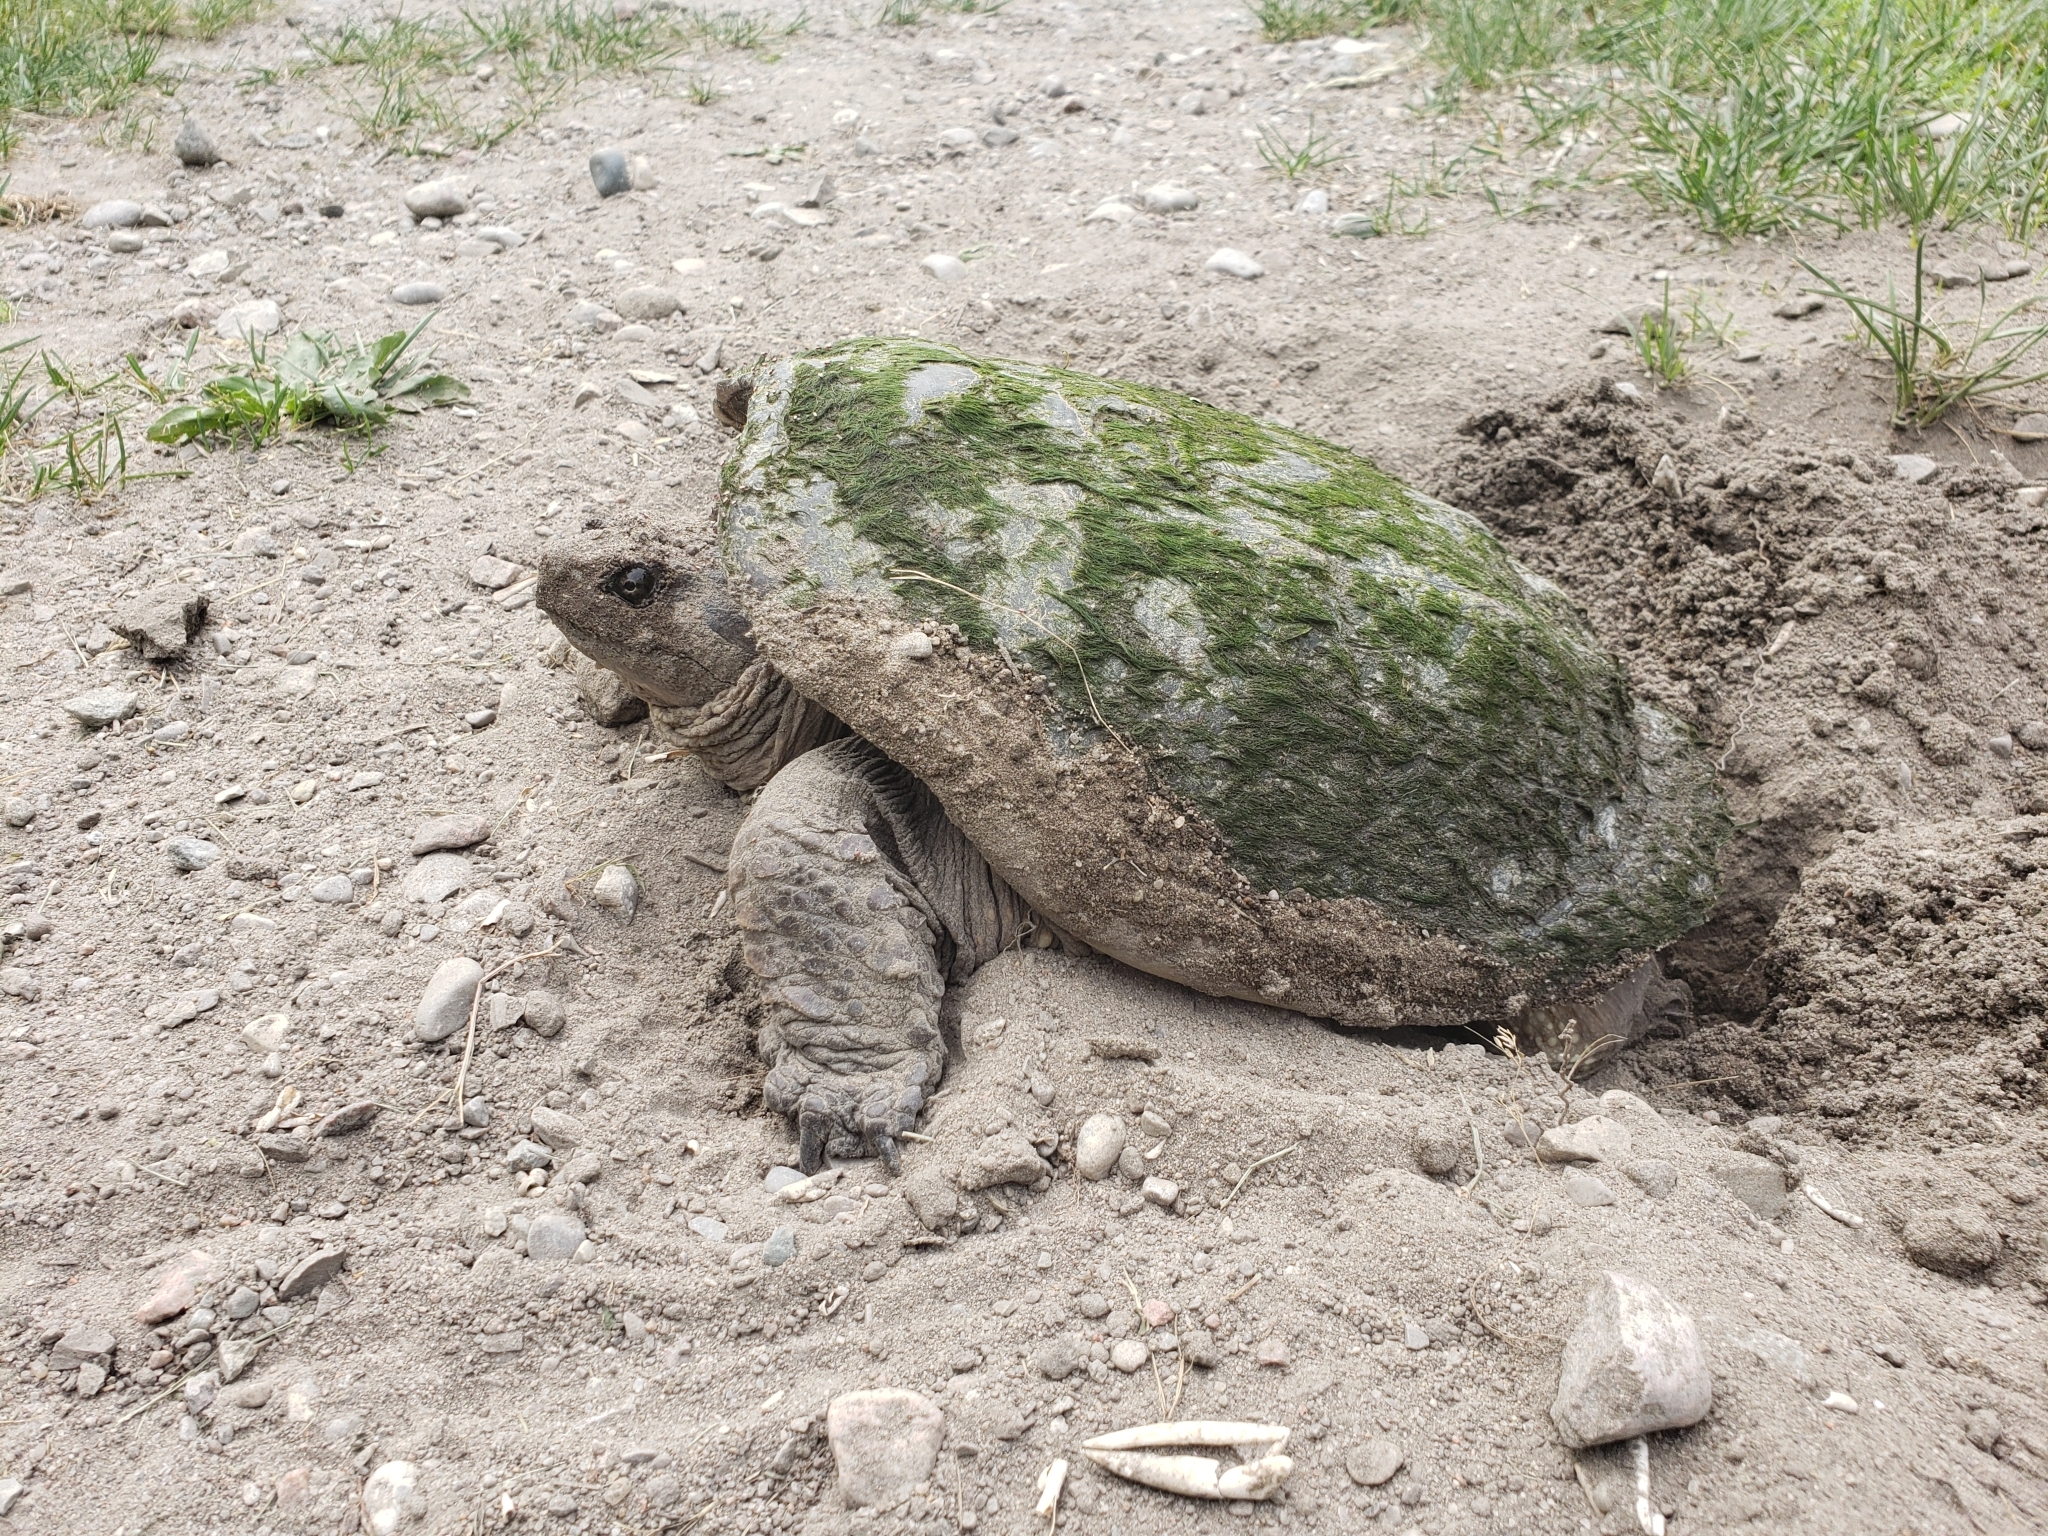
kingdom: Animalia
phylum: Chordata
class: Testudines
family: Chelydridae
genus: Chelydra
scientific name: Chelydra serpentina
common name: Common snapping turtle
